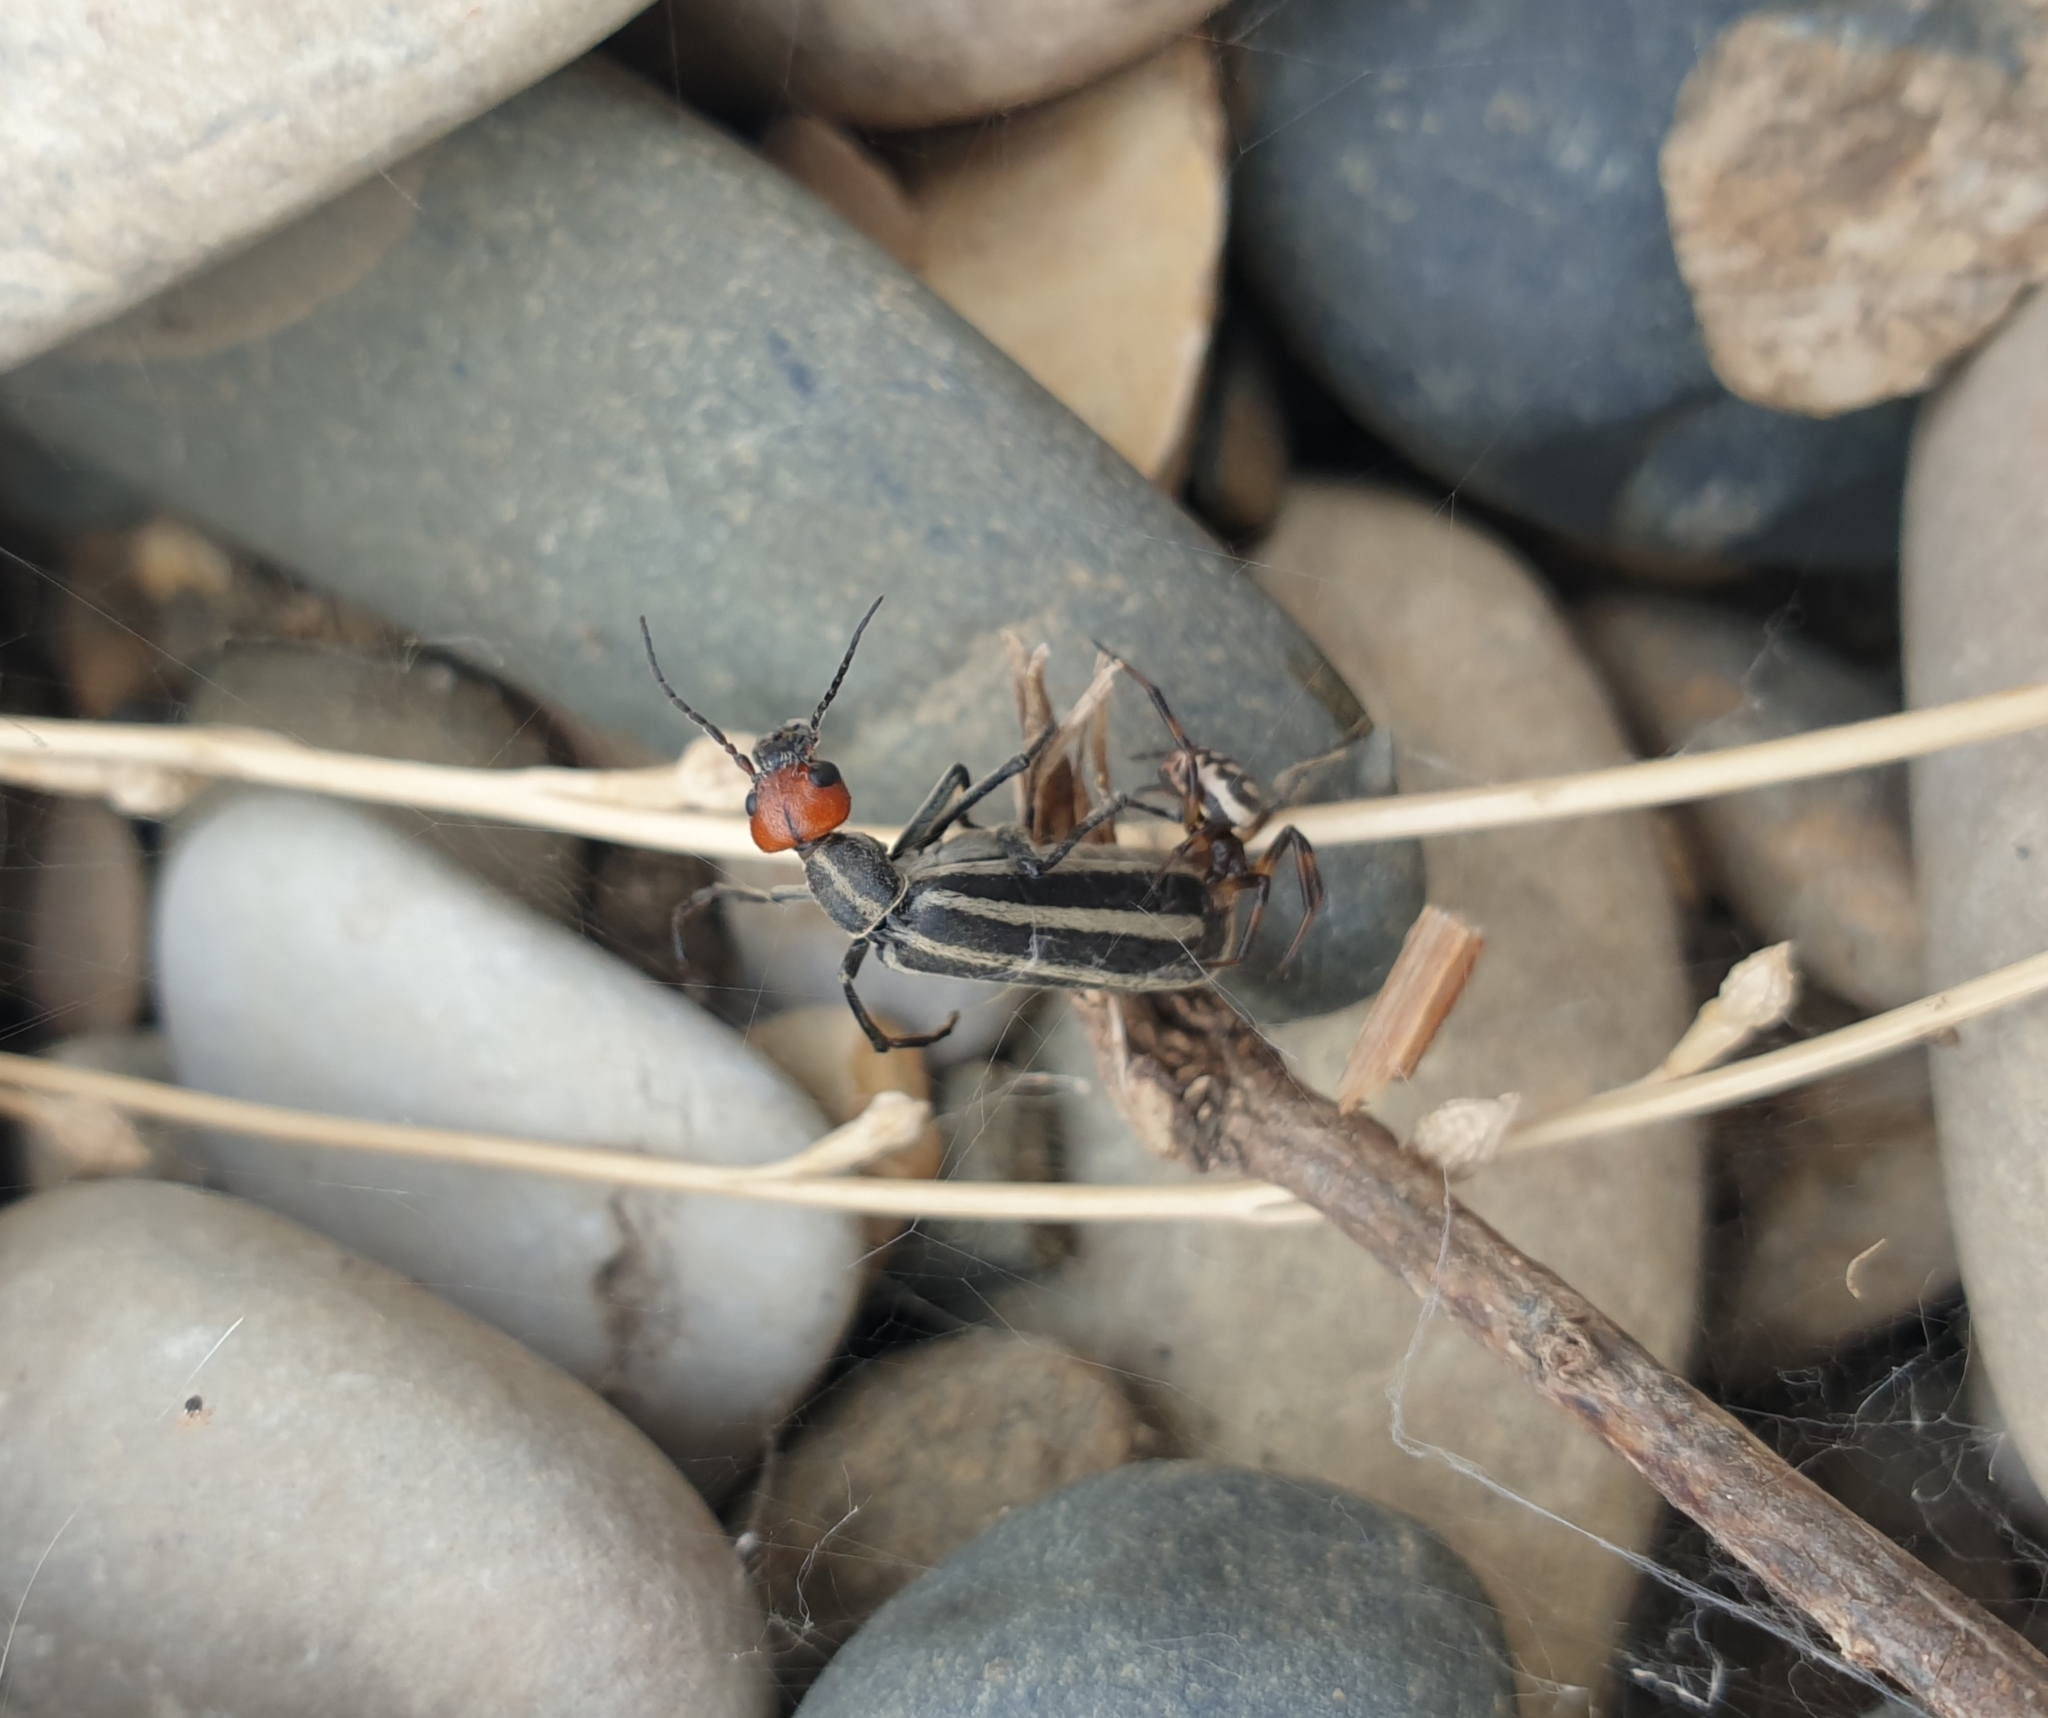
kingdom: Animalia
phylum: Arthropoda
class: Insecta
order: Coleoptera
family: Meloidae
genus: Epicauta
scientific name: Epicauta erythrocephala
